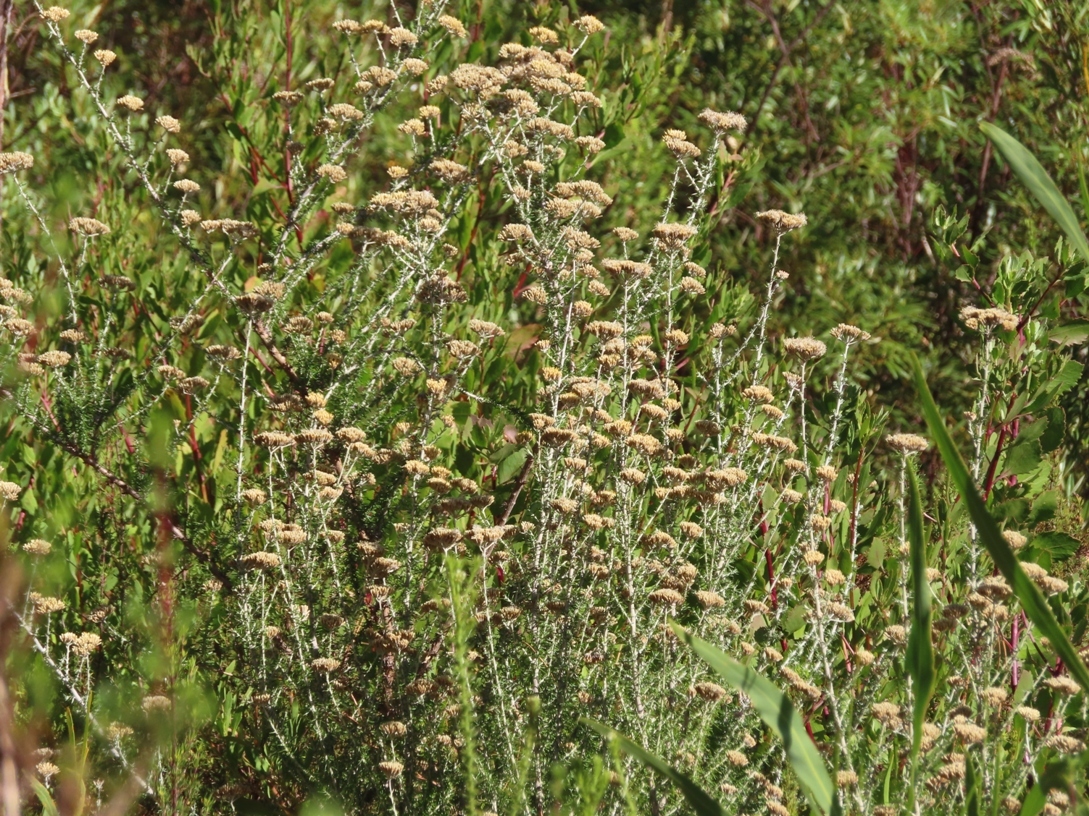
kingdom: Plantae
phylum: Tracheophyta
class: Magnoliopsida
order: Asterales
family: Asteraceae
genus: Metalasia
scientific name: Metalasia densa
